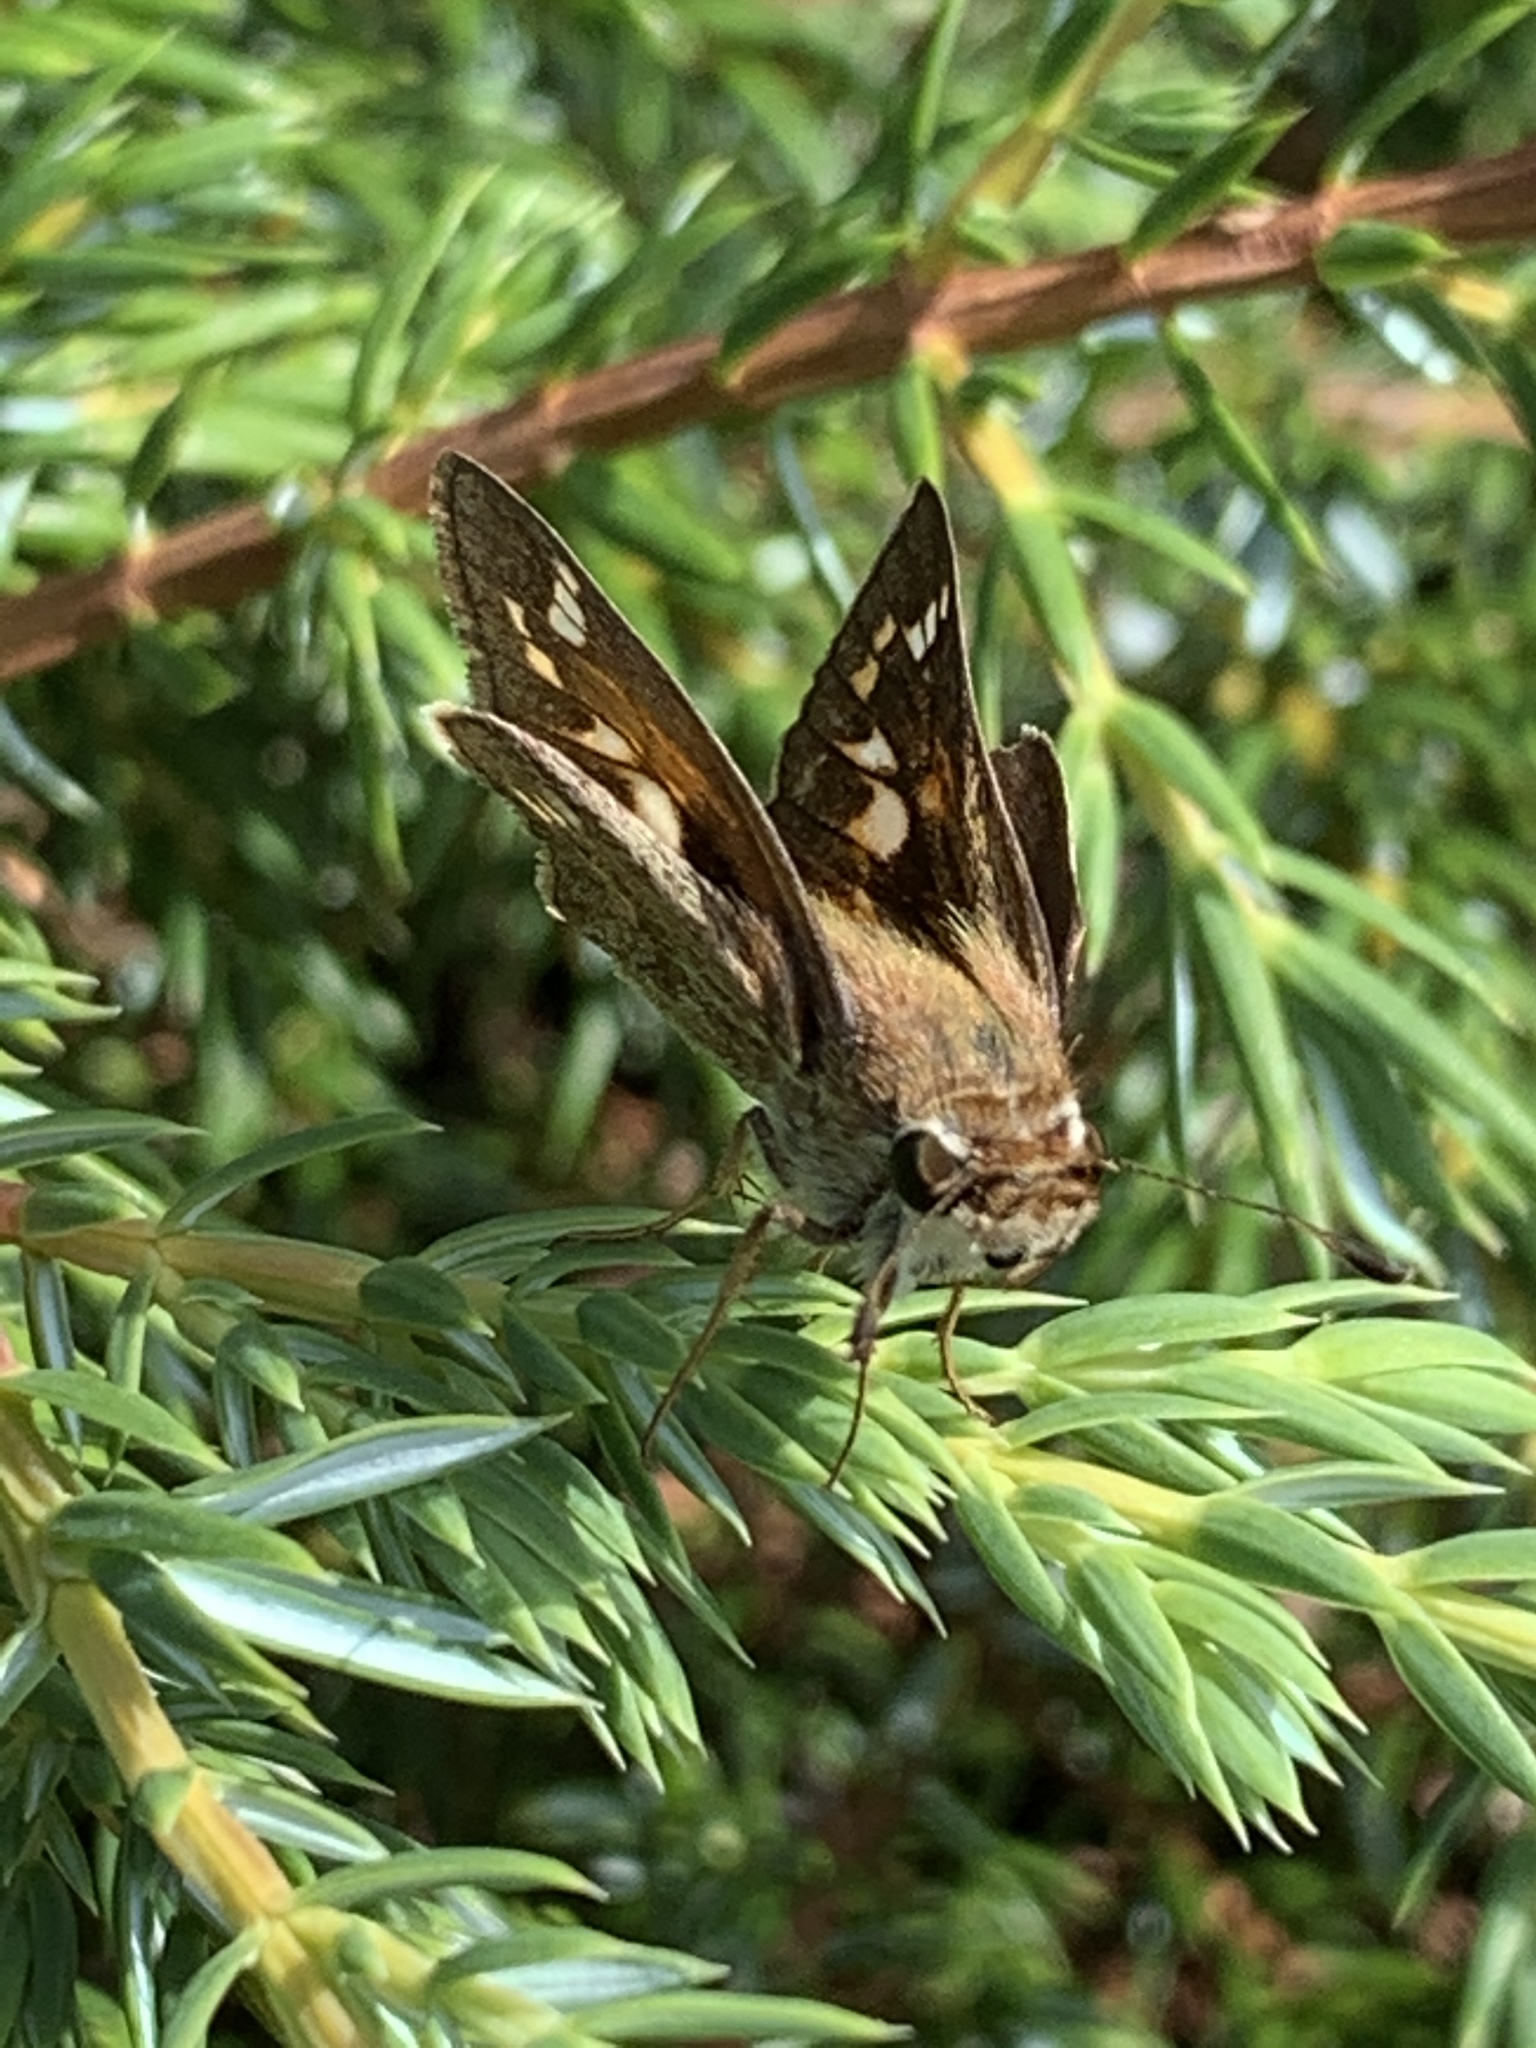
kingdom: Animalia
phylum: Arthropoda
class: Insecta
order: Lepidoptera
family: Hesperiidae
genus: Atalopedes
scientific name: Atalopedes
